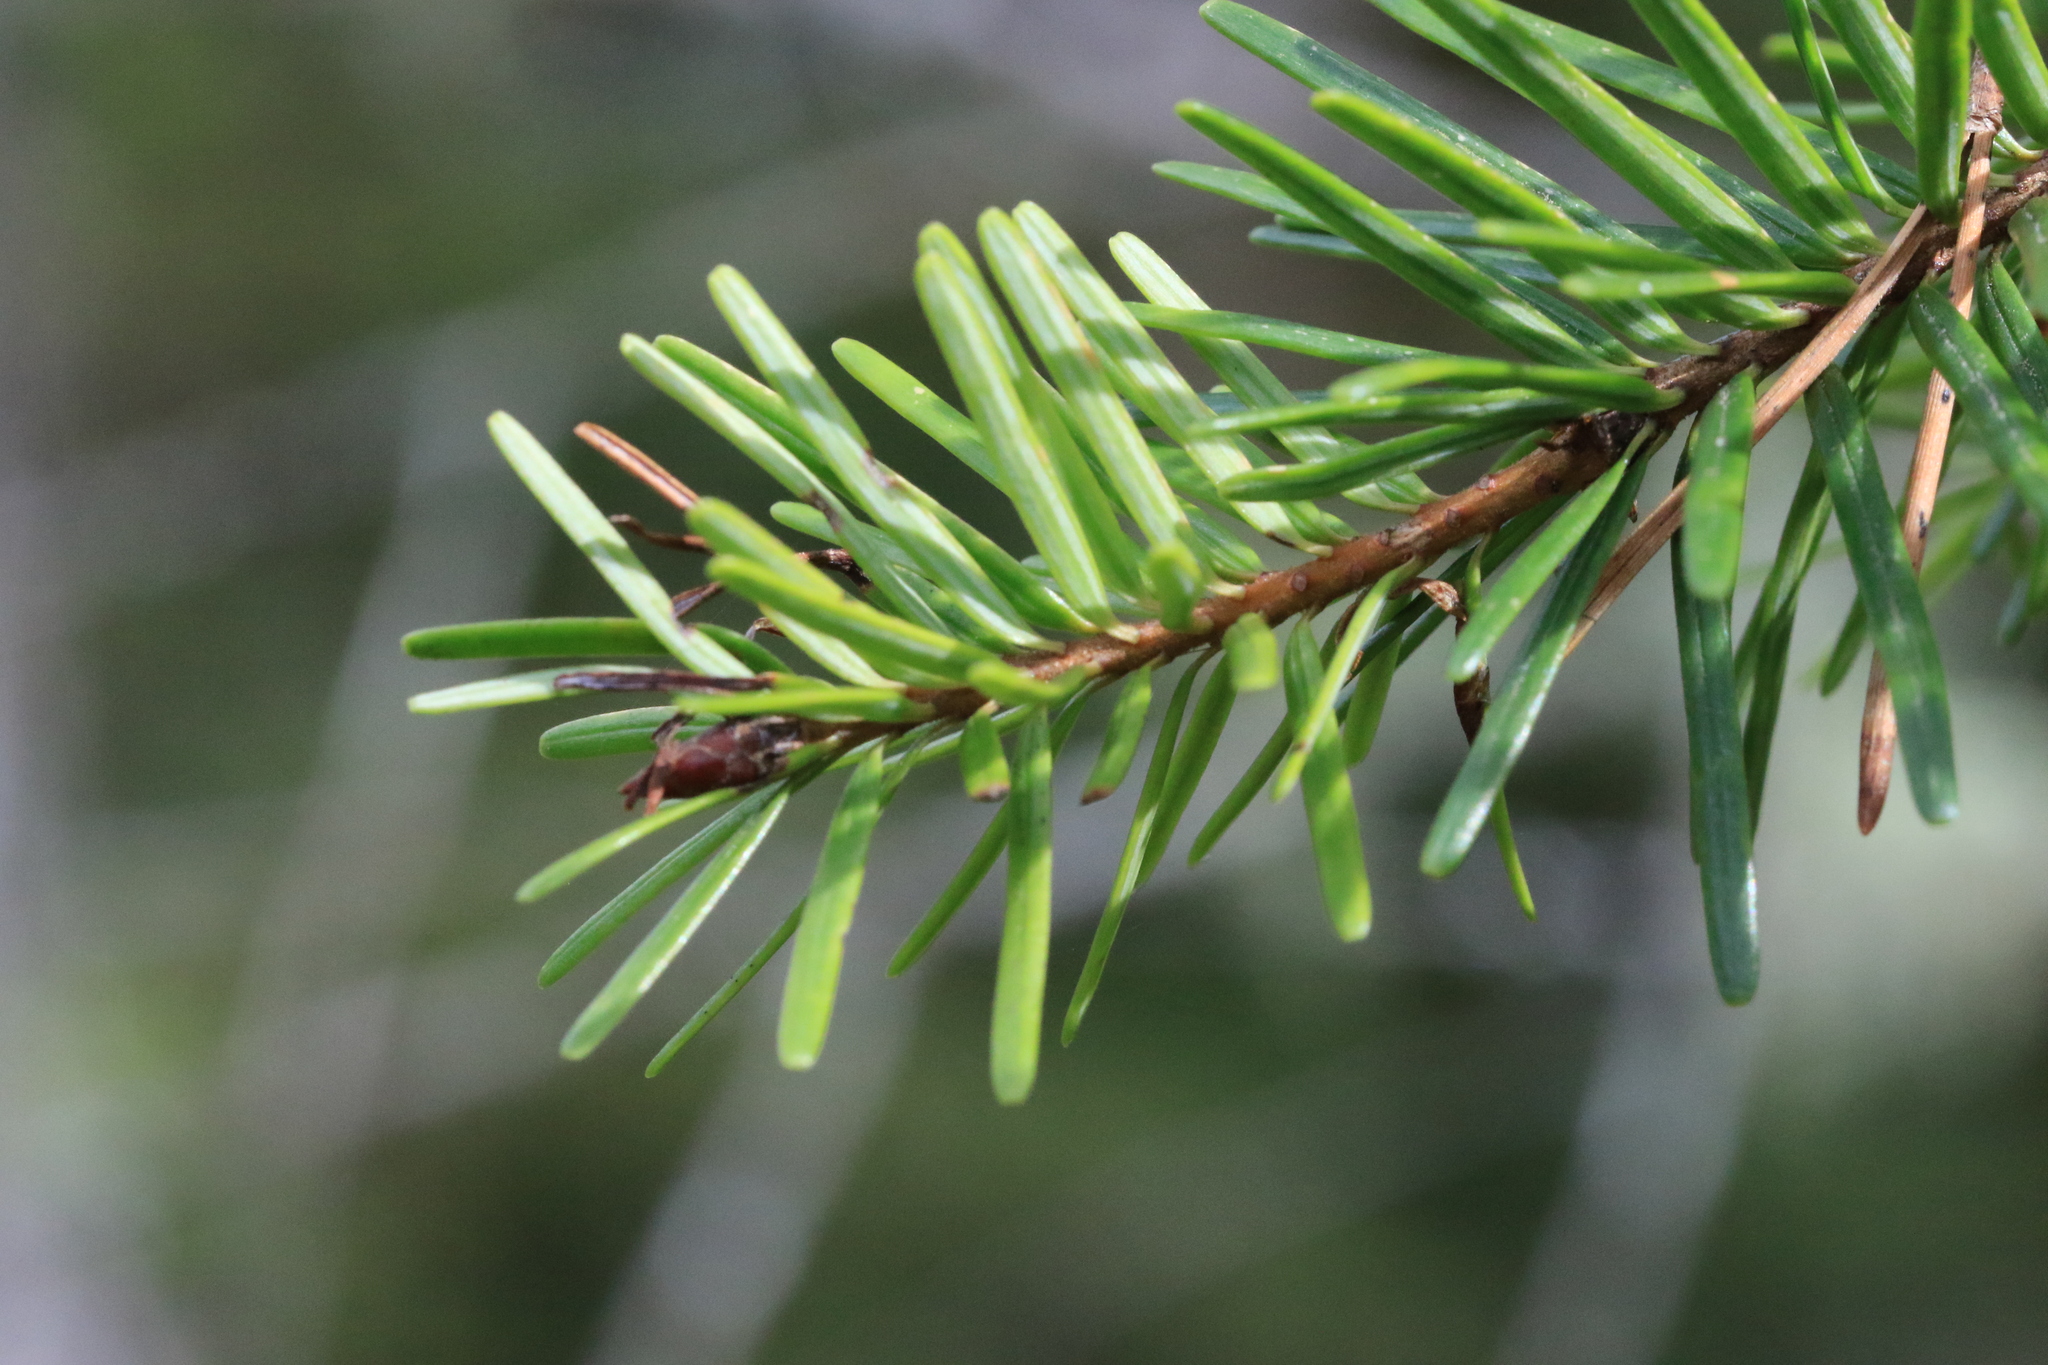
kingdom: Plantae
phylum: Tracheophyta
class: Pinopsida
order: Pinales
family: Pinaceae
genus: Pseudotsuga
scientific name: Pseudotsuga menziesii
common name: Douglas fir
